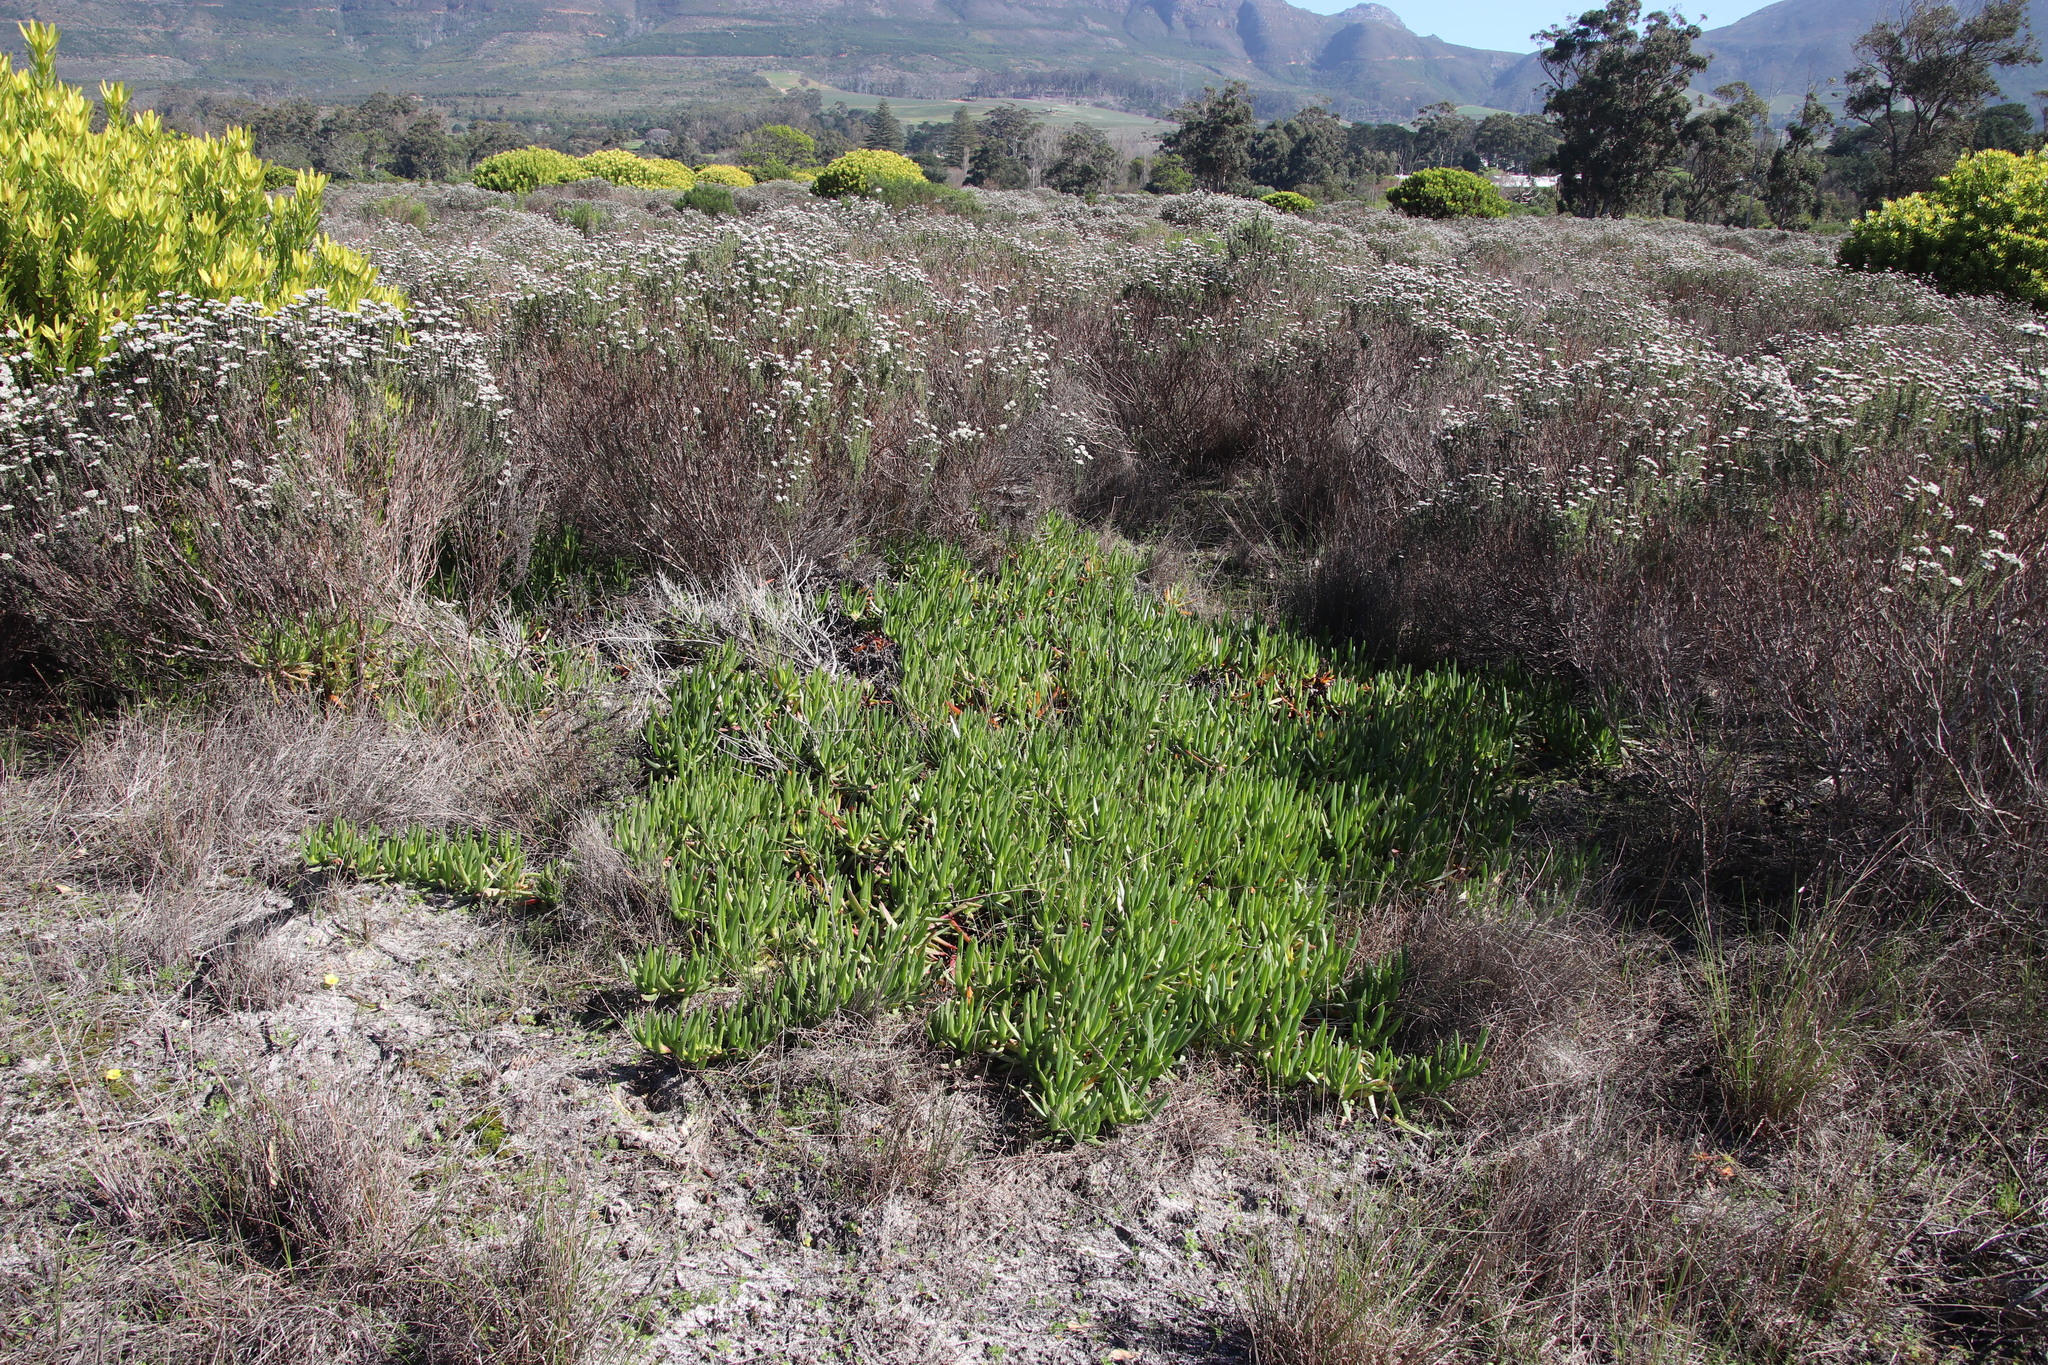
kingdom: Plantae
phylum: Tracheophyta
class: Magnoliopsida
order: Caryophyllales
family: Aizoaceae
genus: Carpobrotus
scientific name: Carpobrotus edulis
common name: Hottentot-fig
